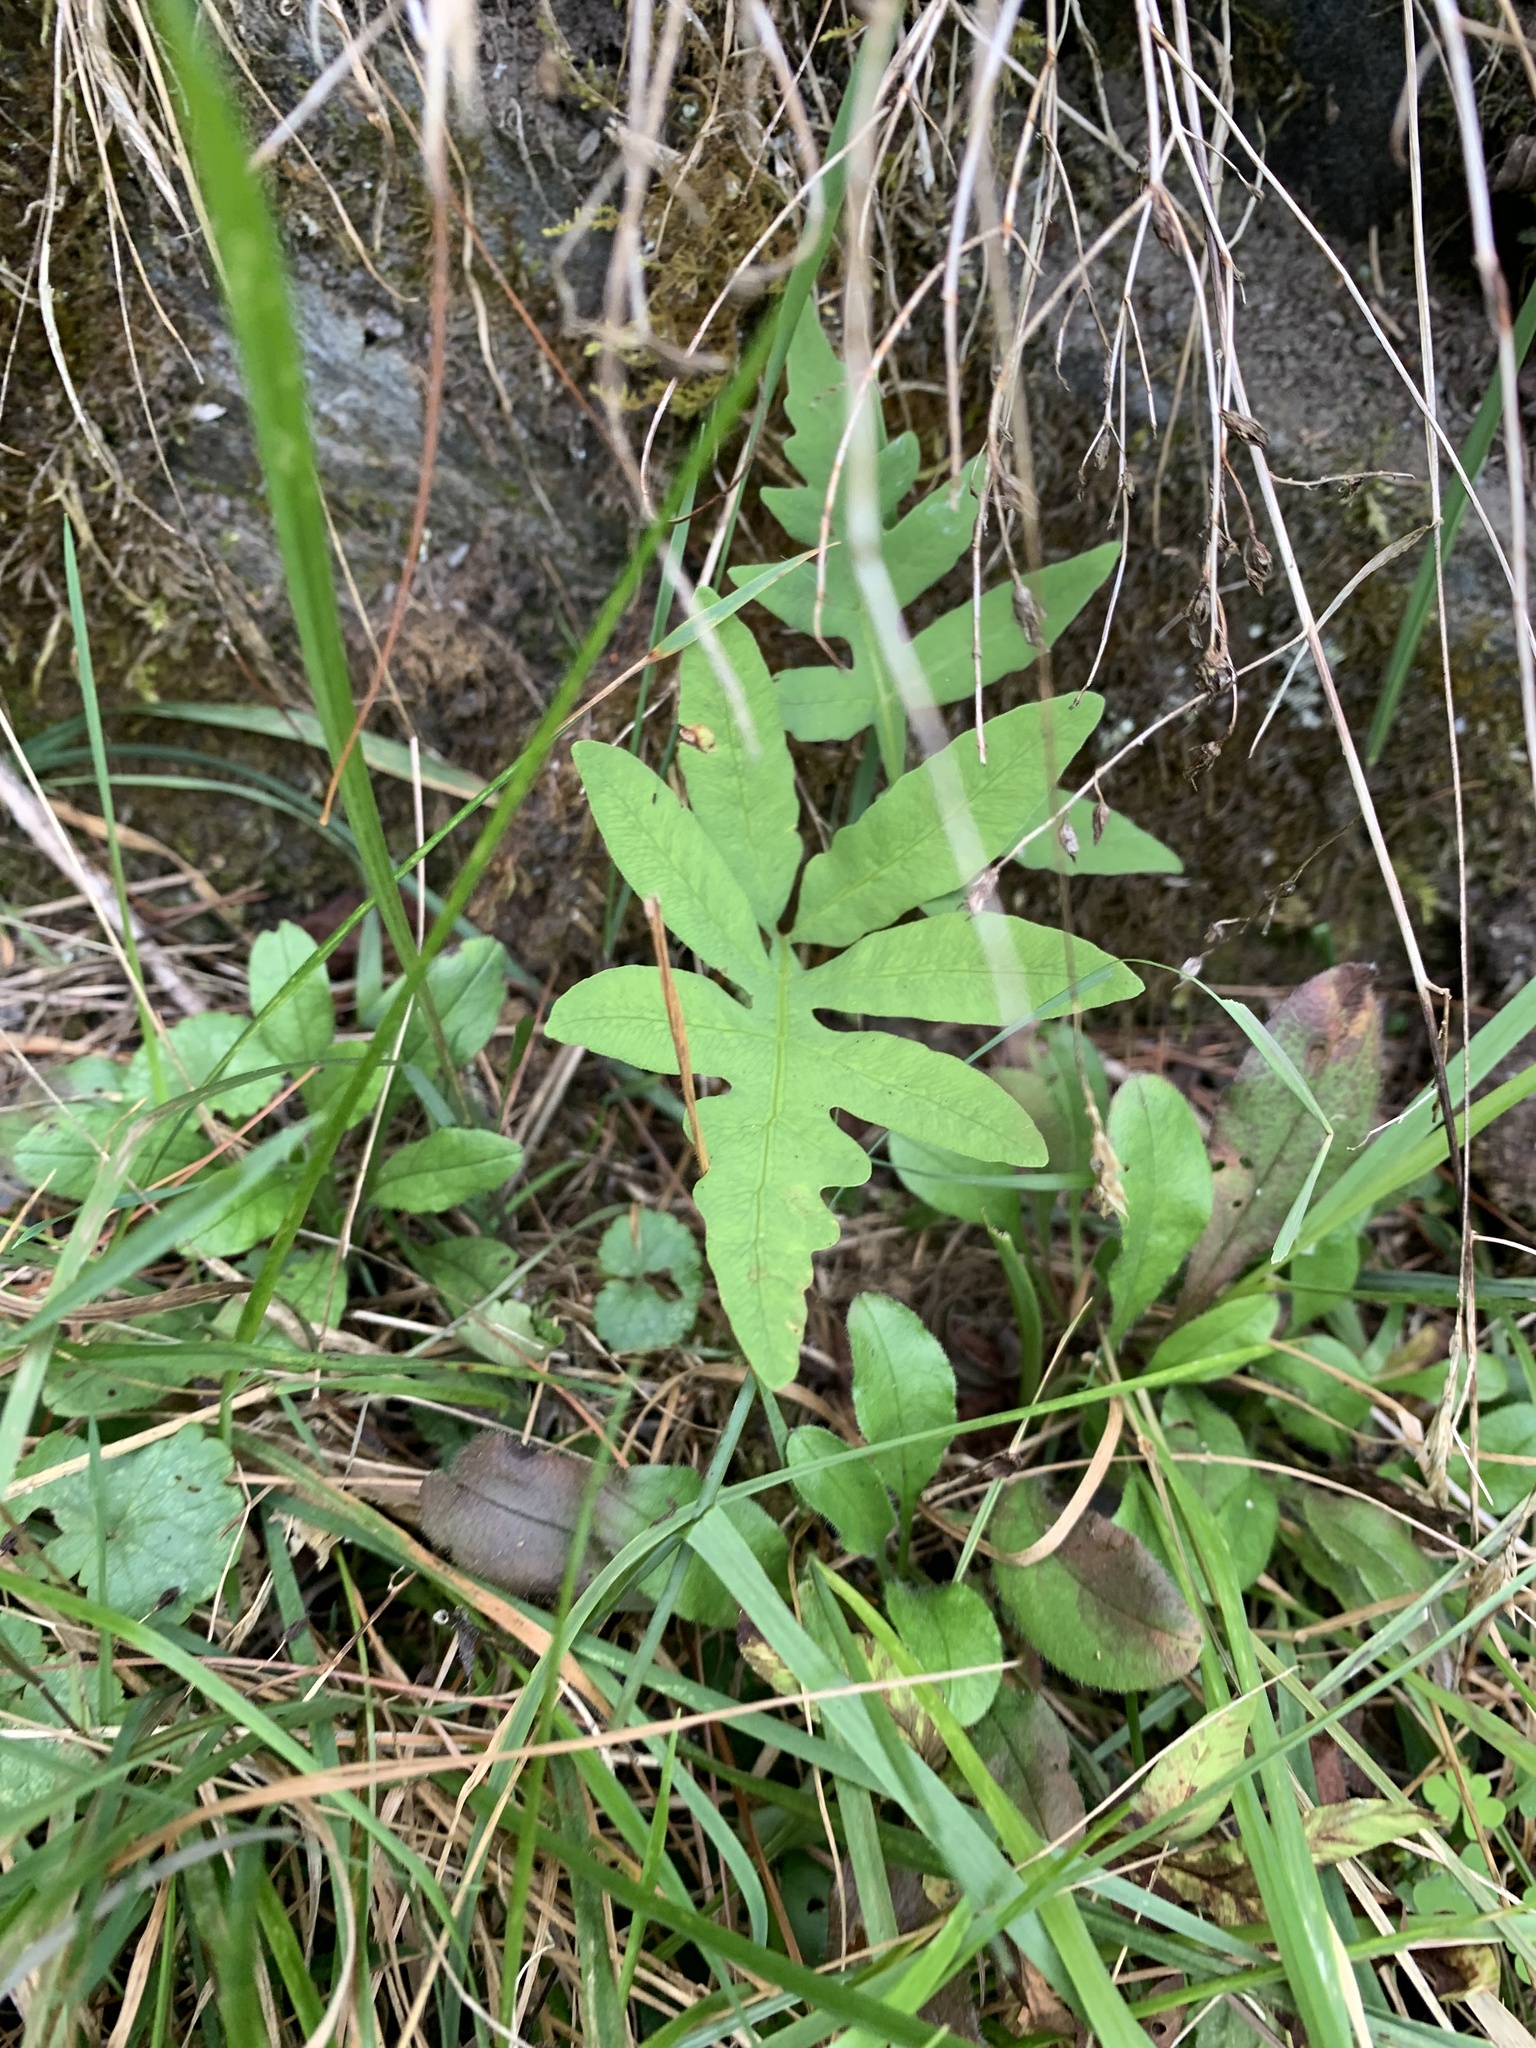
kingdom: Plantae
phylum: Tracheophyta
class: Polypodiopsida
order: Polypodiales
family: Onocleaceae
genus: Onoclea
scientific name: Onoclea sensibilis
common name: Sensitive fern
